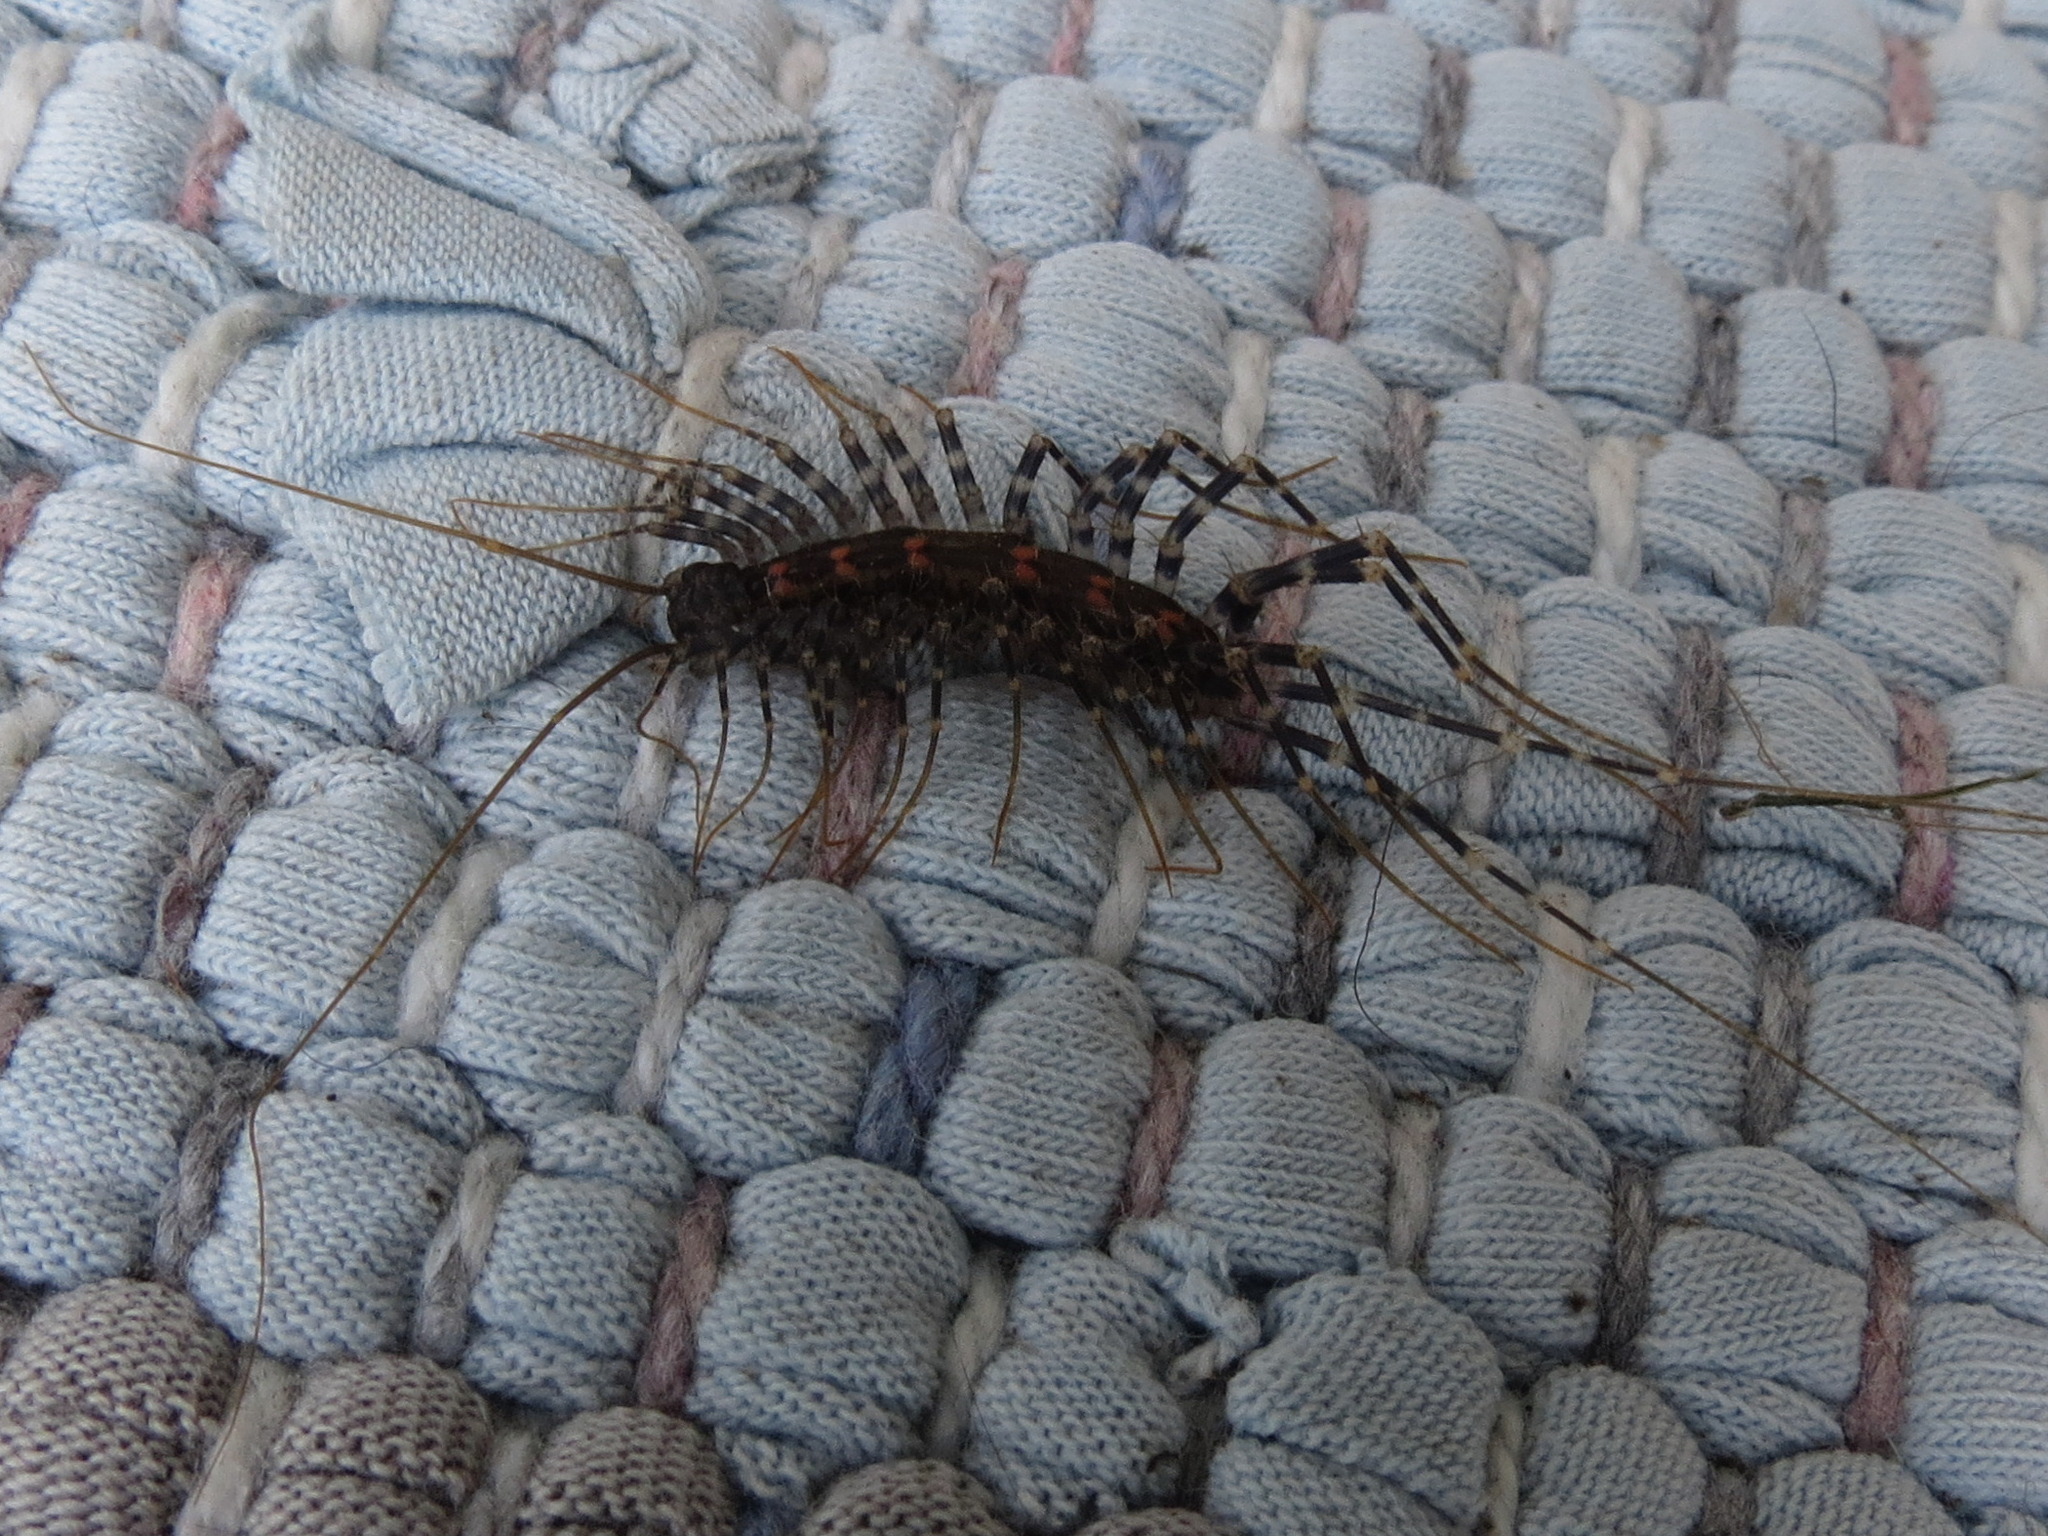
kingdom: Animalia
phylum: Arthropoda
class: Chilopoda
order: Scutigeromorpha
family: Scutigeridae
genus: Allothereua
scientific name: Allothereua maculata
